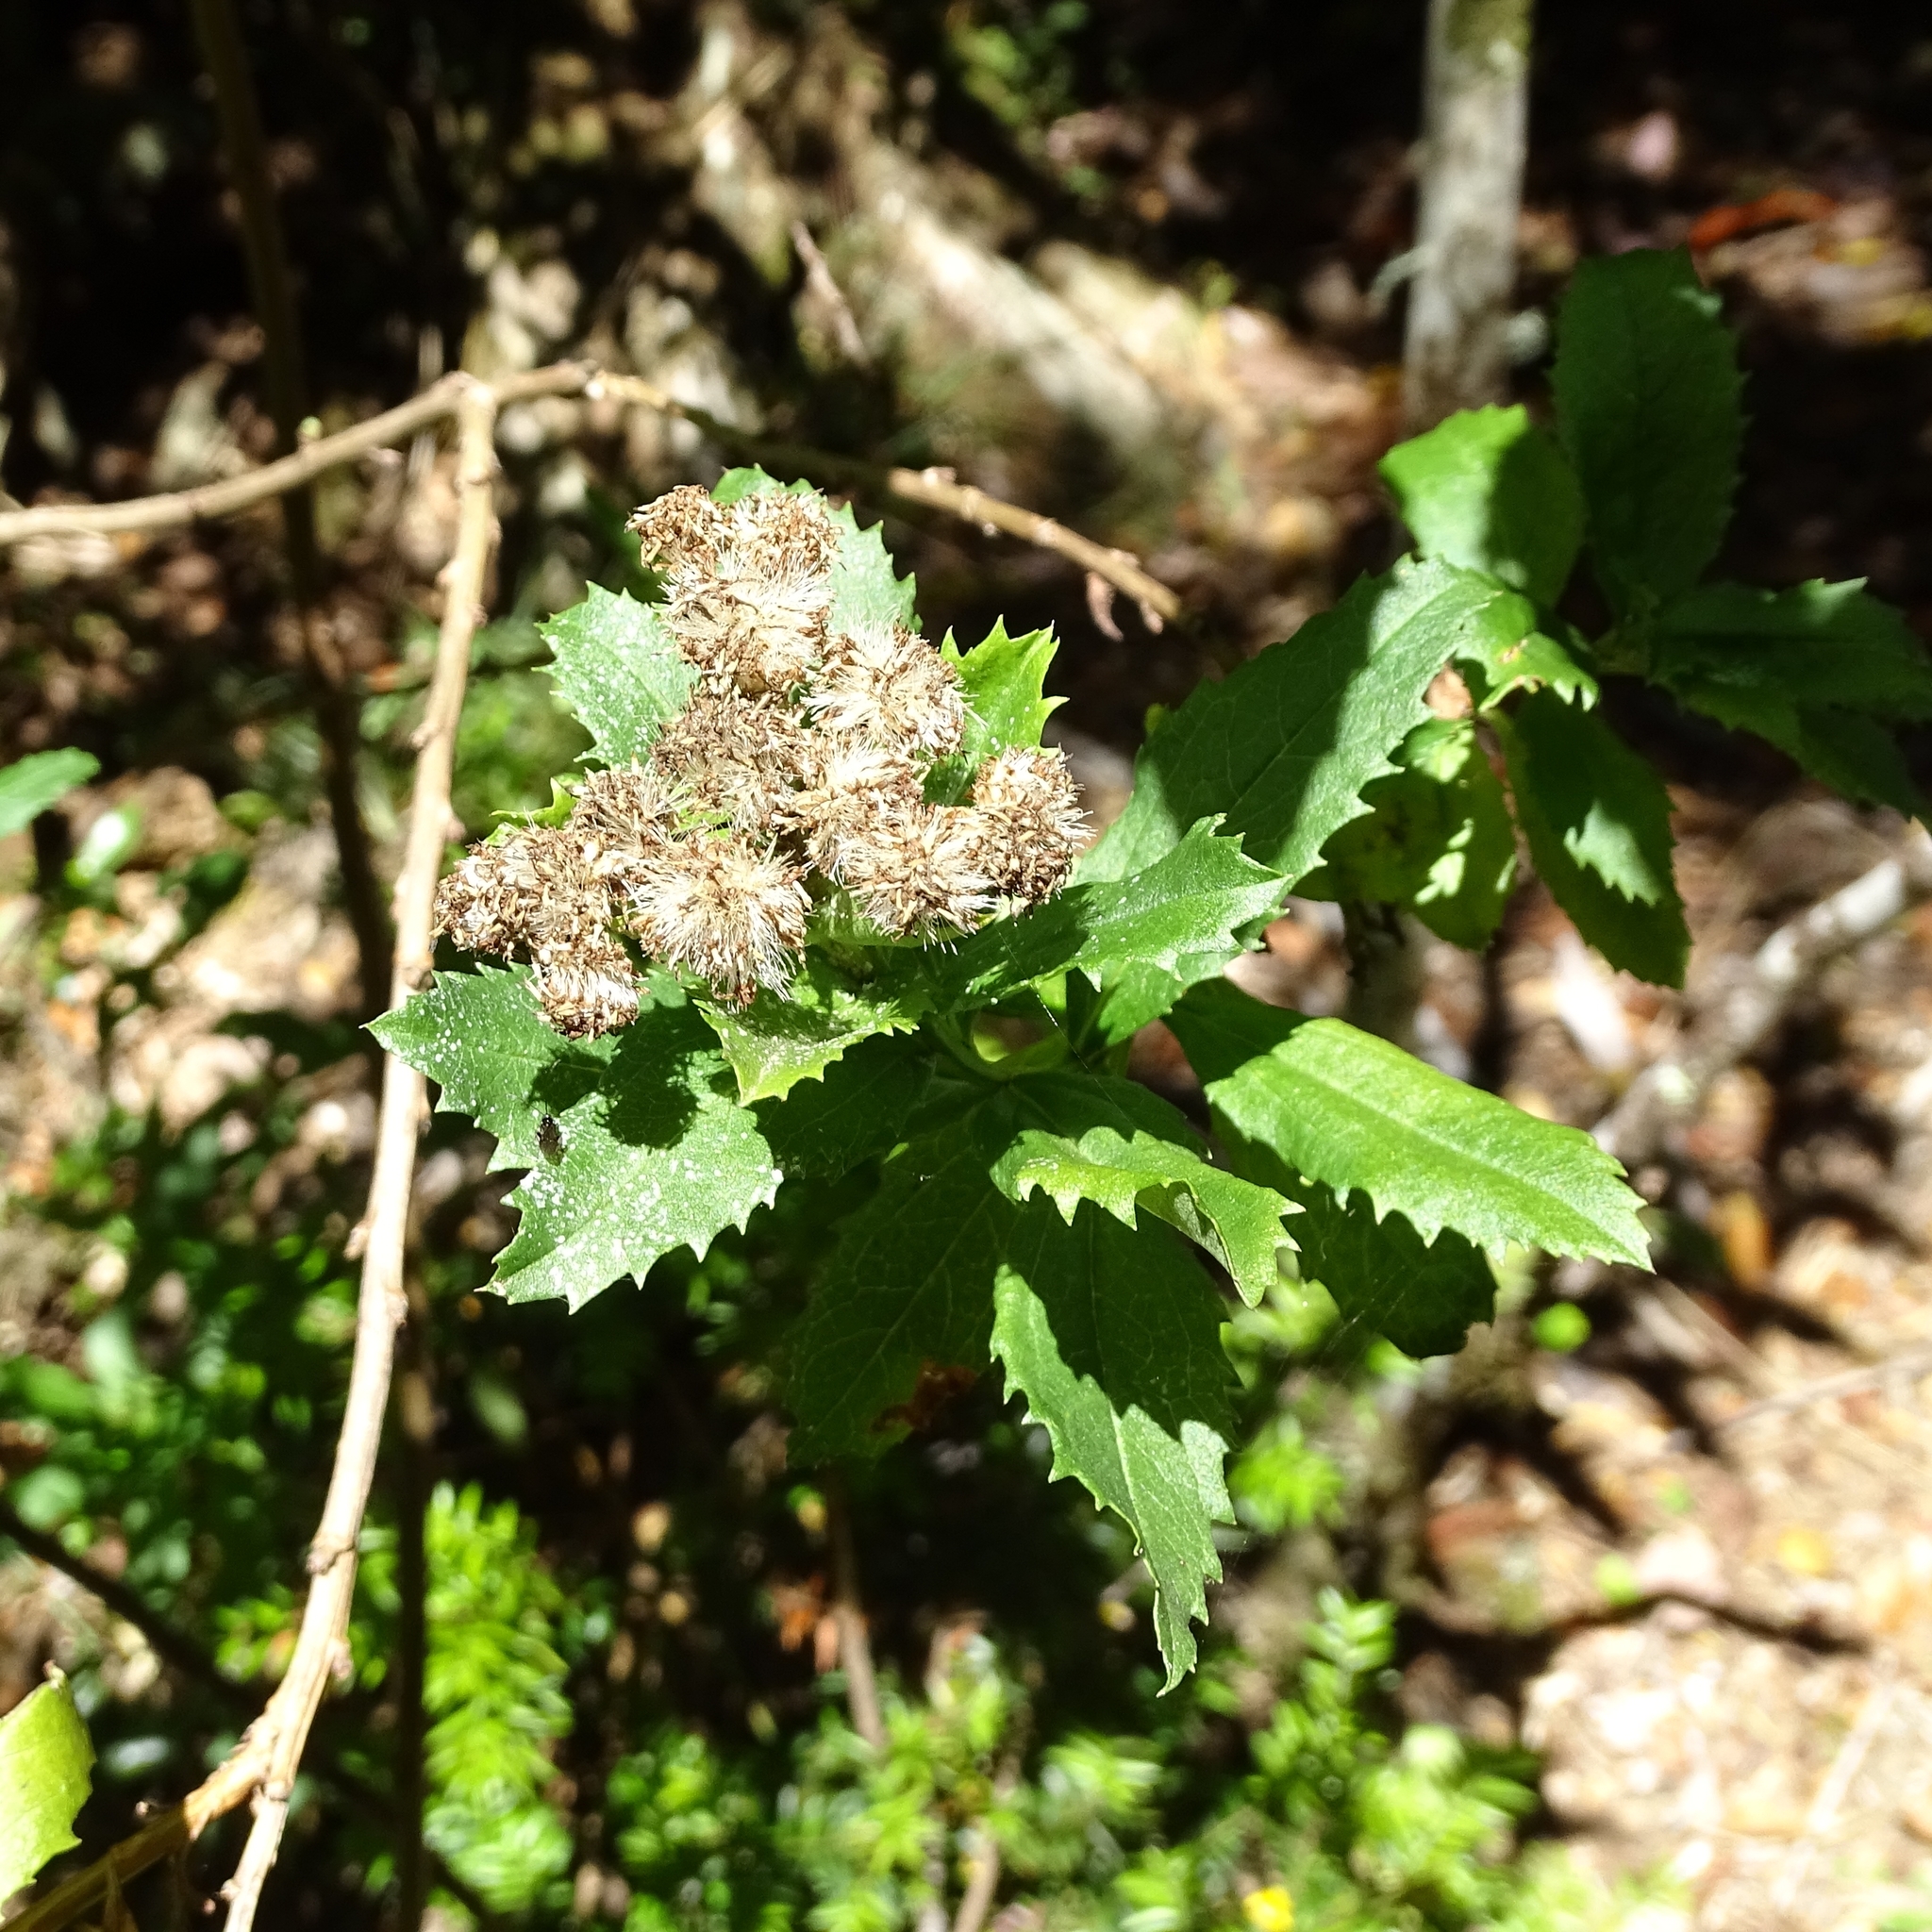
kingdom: Plantae
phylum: Tracheophyta
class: Magnoliopsida
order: Asterales
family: Asteraceae
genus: Baccharis
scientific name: Baccharis sphaerocephala
